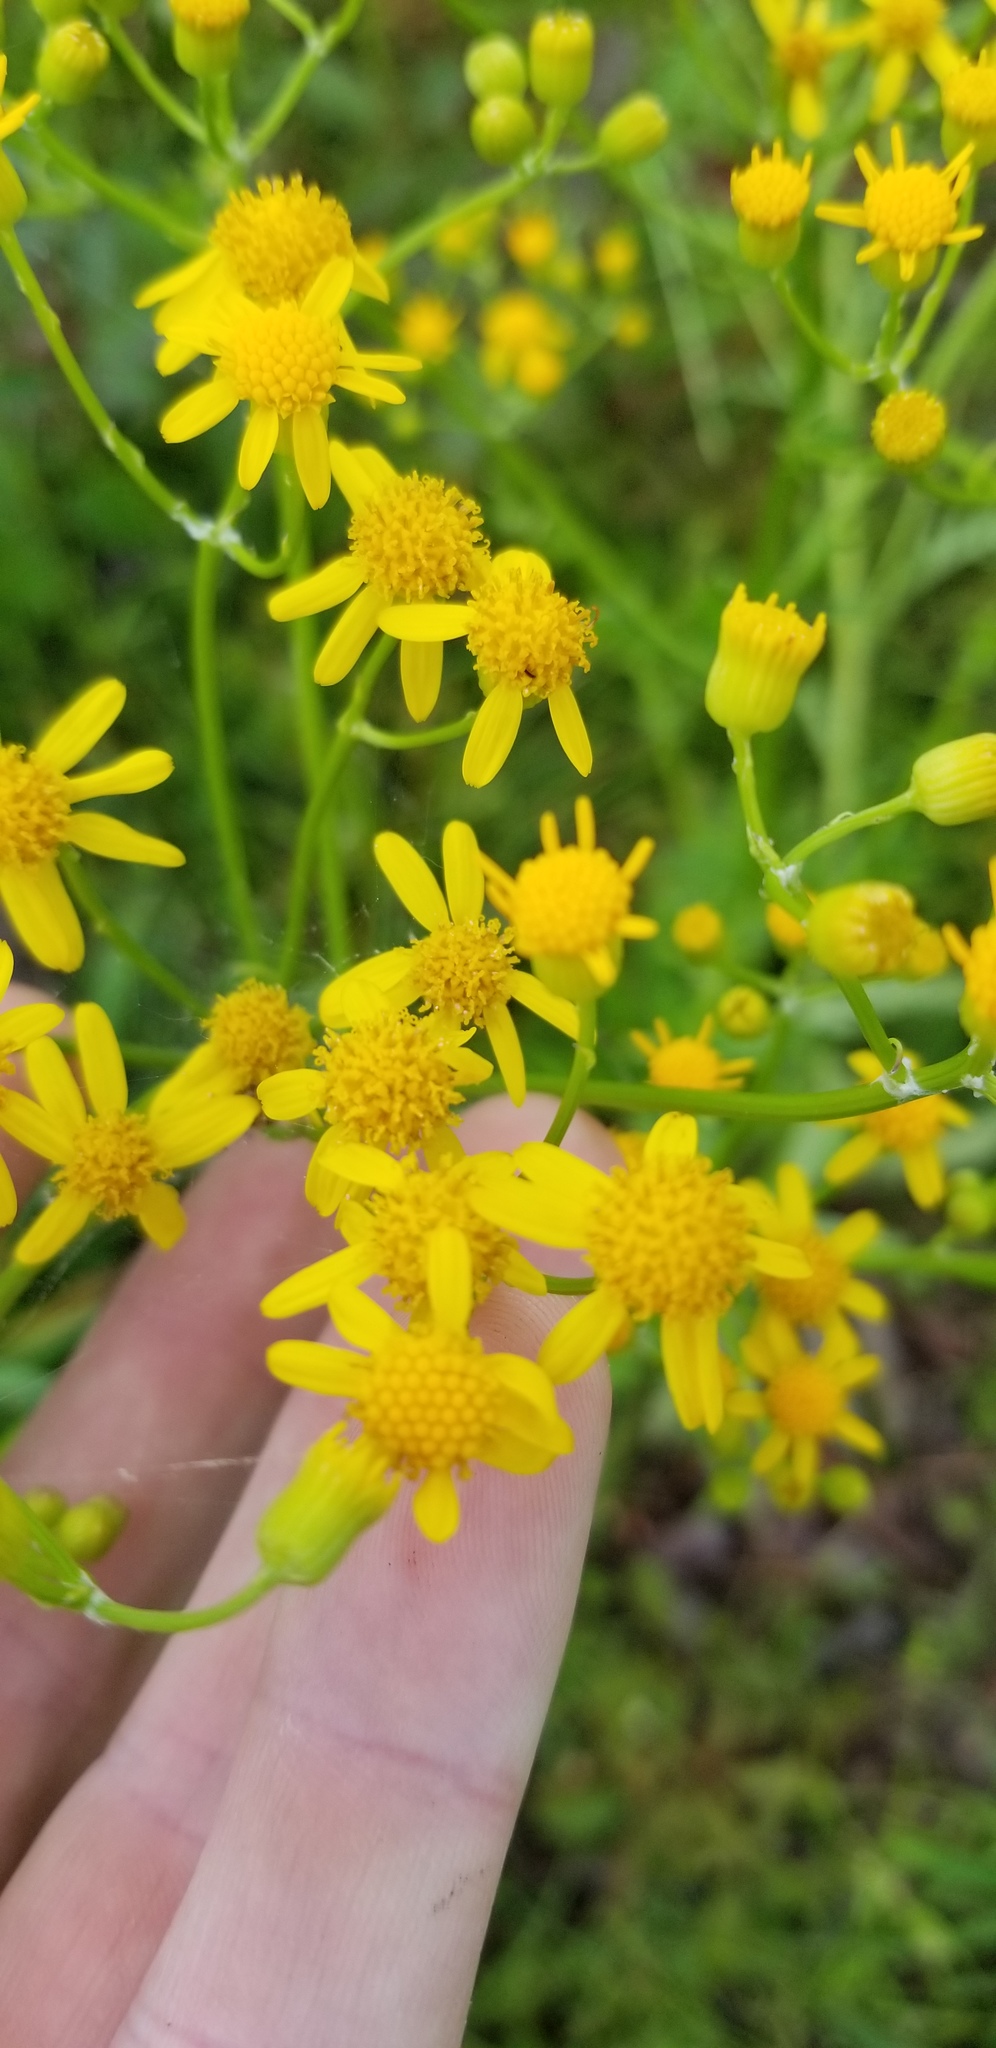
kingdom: Plantae
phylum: Tracheophyta
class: Magnoliopsida
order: Asterales
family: Asteraceae
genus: Packera
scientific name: Packera anonyma
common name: Small ragwort
